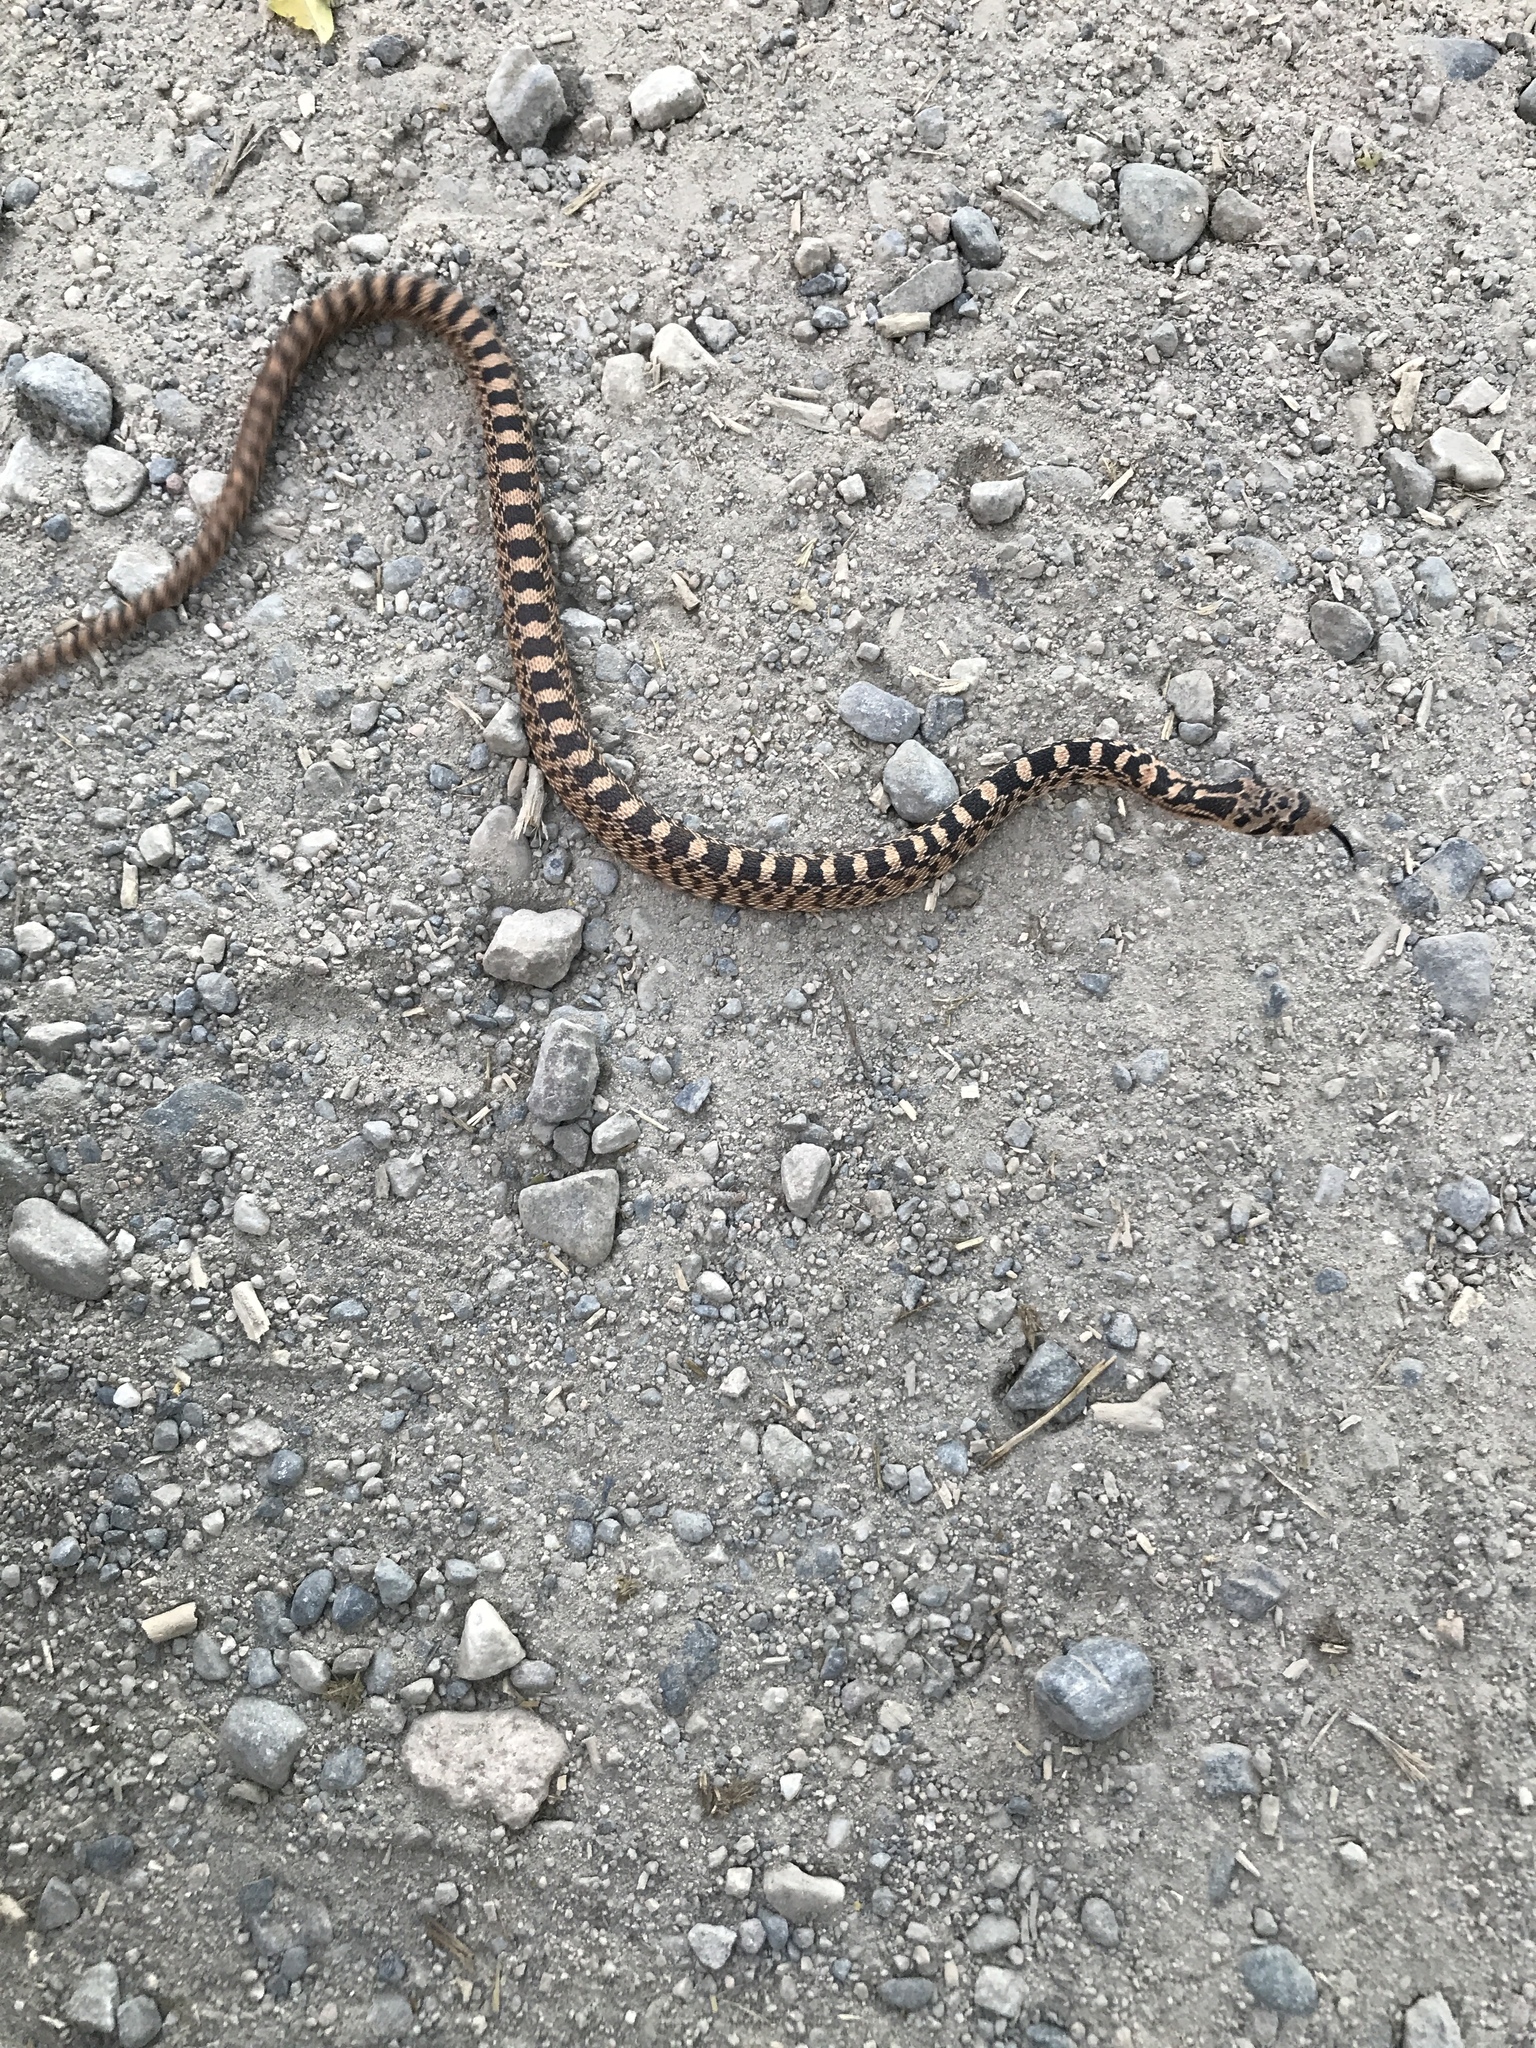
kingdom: Animalia
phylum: Chordata
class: Squamata
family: Colubridae
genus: Pituophis
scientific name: Pituophis catenifer
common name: Gopher snake
